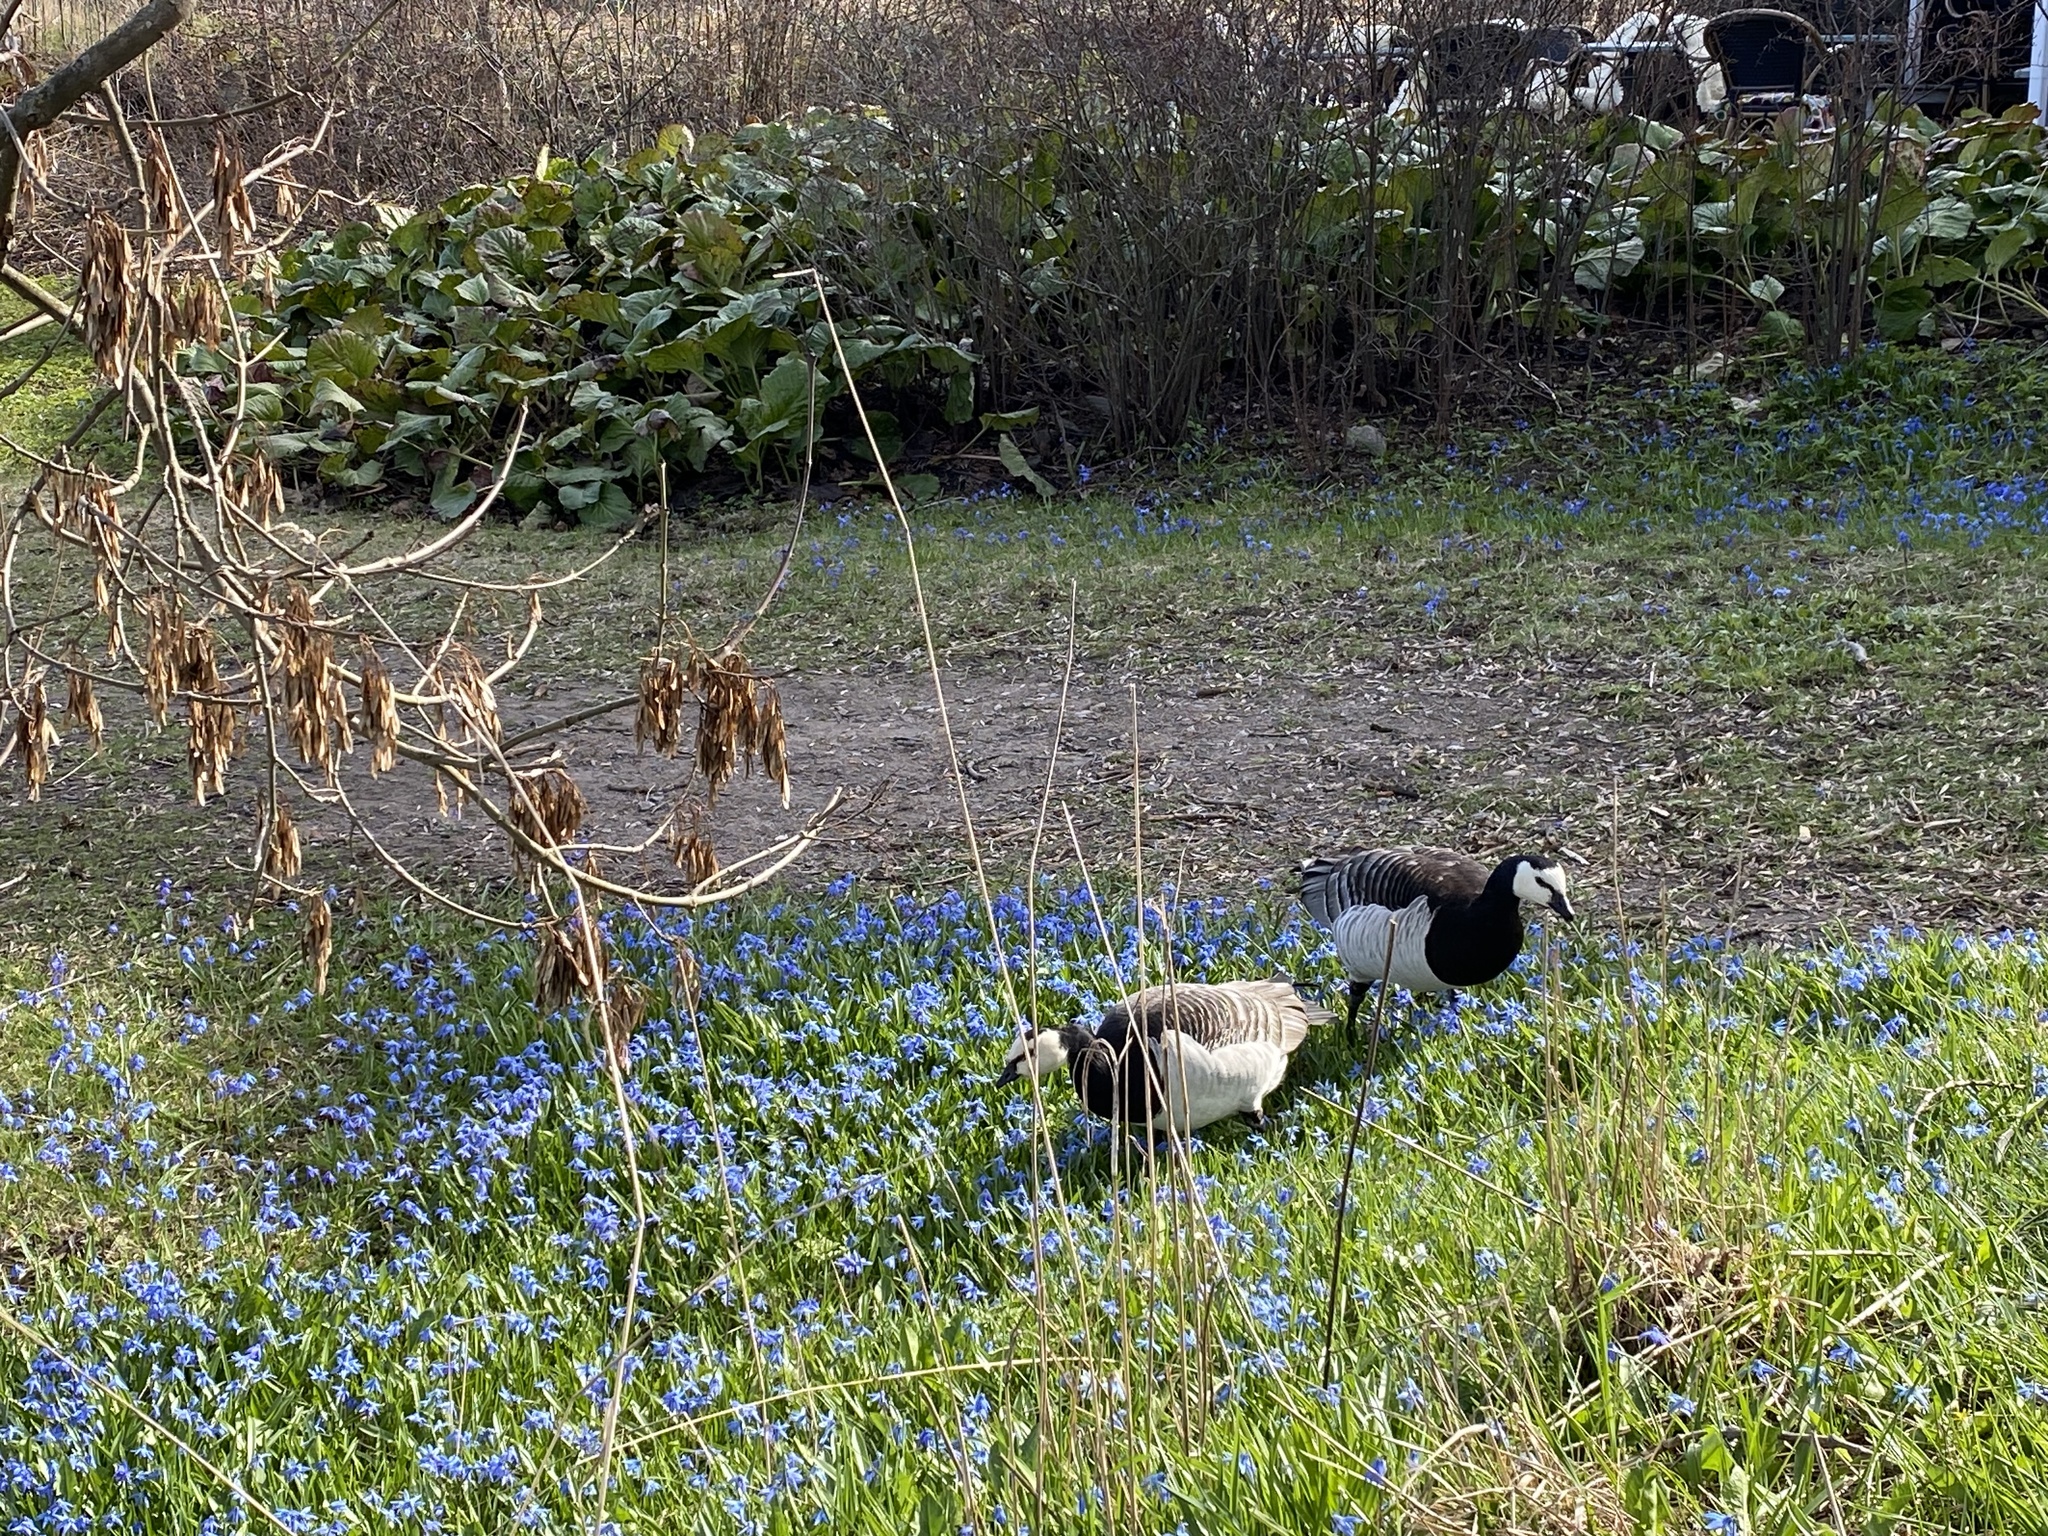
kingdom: Animalia
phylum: Chordata
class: Aves
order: Anseriformes
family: Anatidae
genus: Branta
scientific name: Branta leucopsis
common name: Barnacle goose
